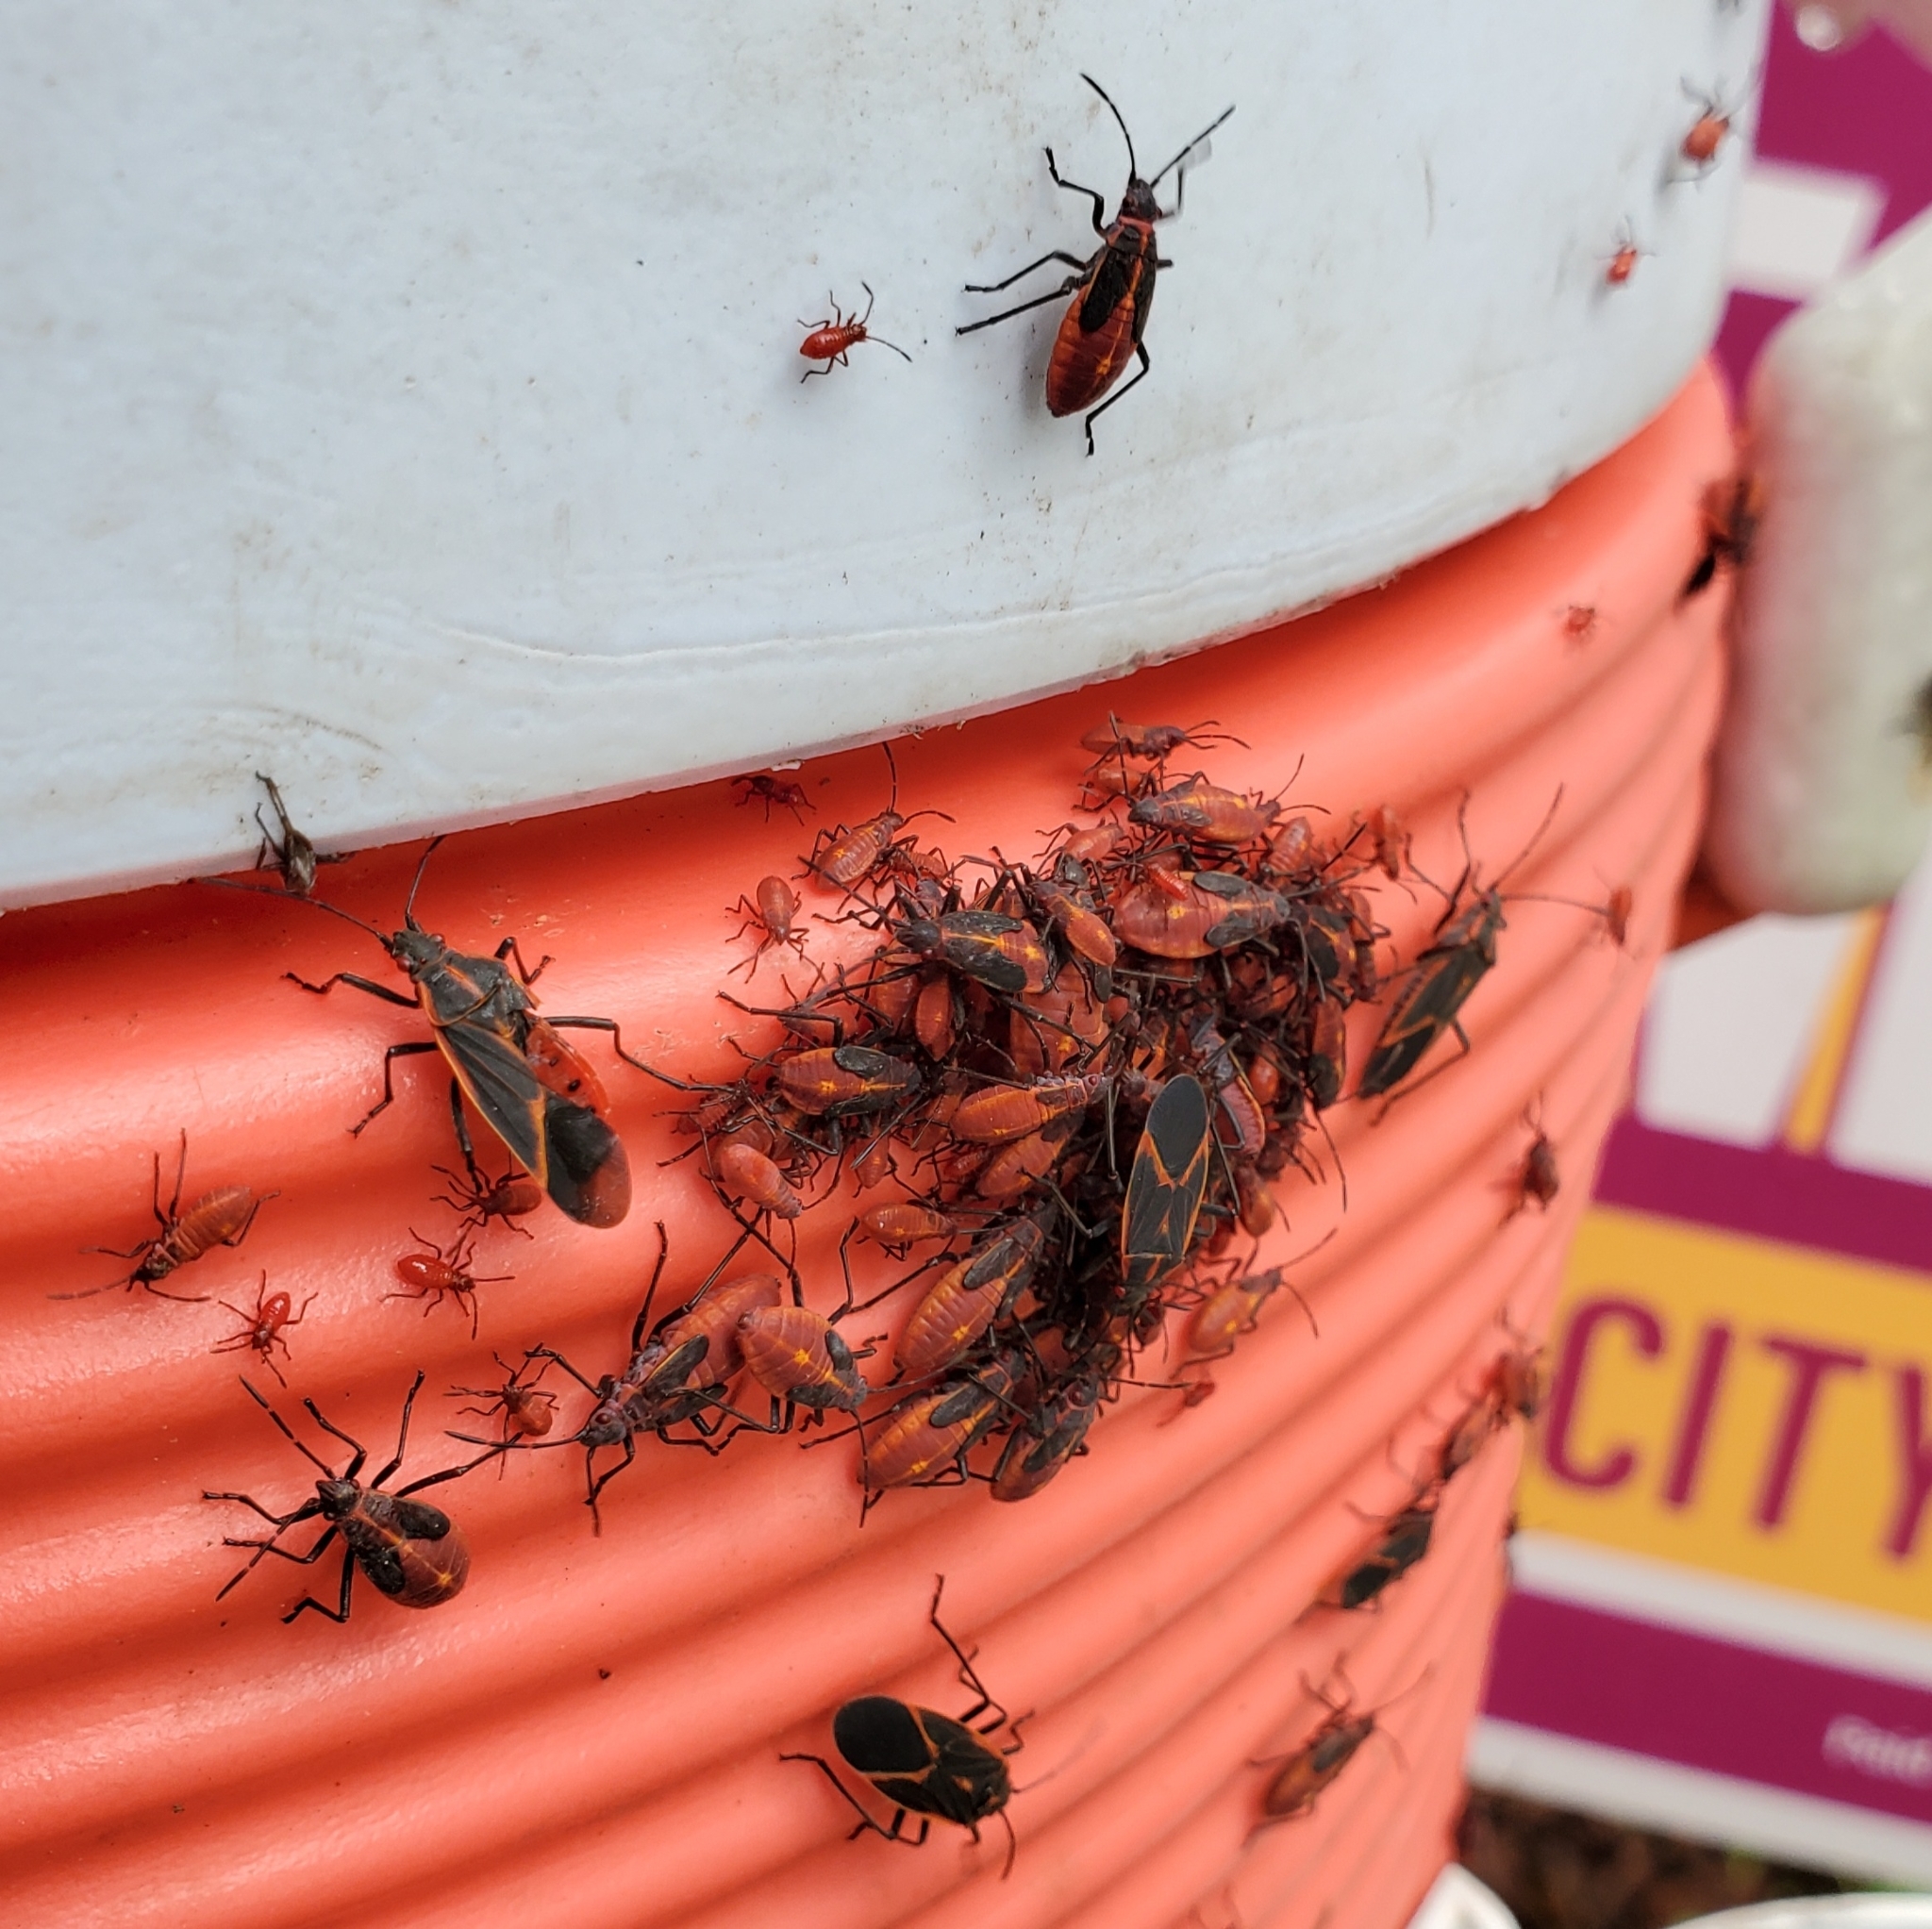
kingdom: Animalia
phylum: Arthropoda
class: Insecta
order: Hemiptera
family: Rhopalidae
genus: Boisea
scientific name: Boisea trivittata
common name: Boxelder bug
